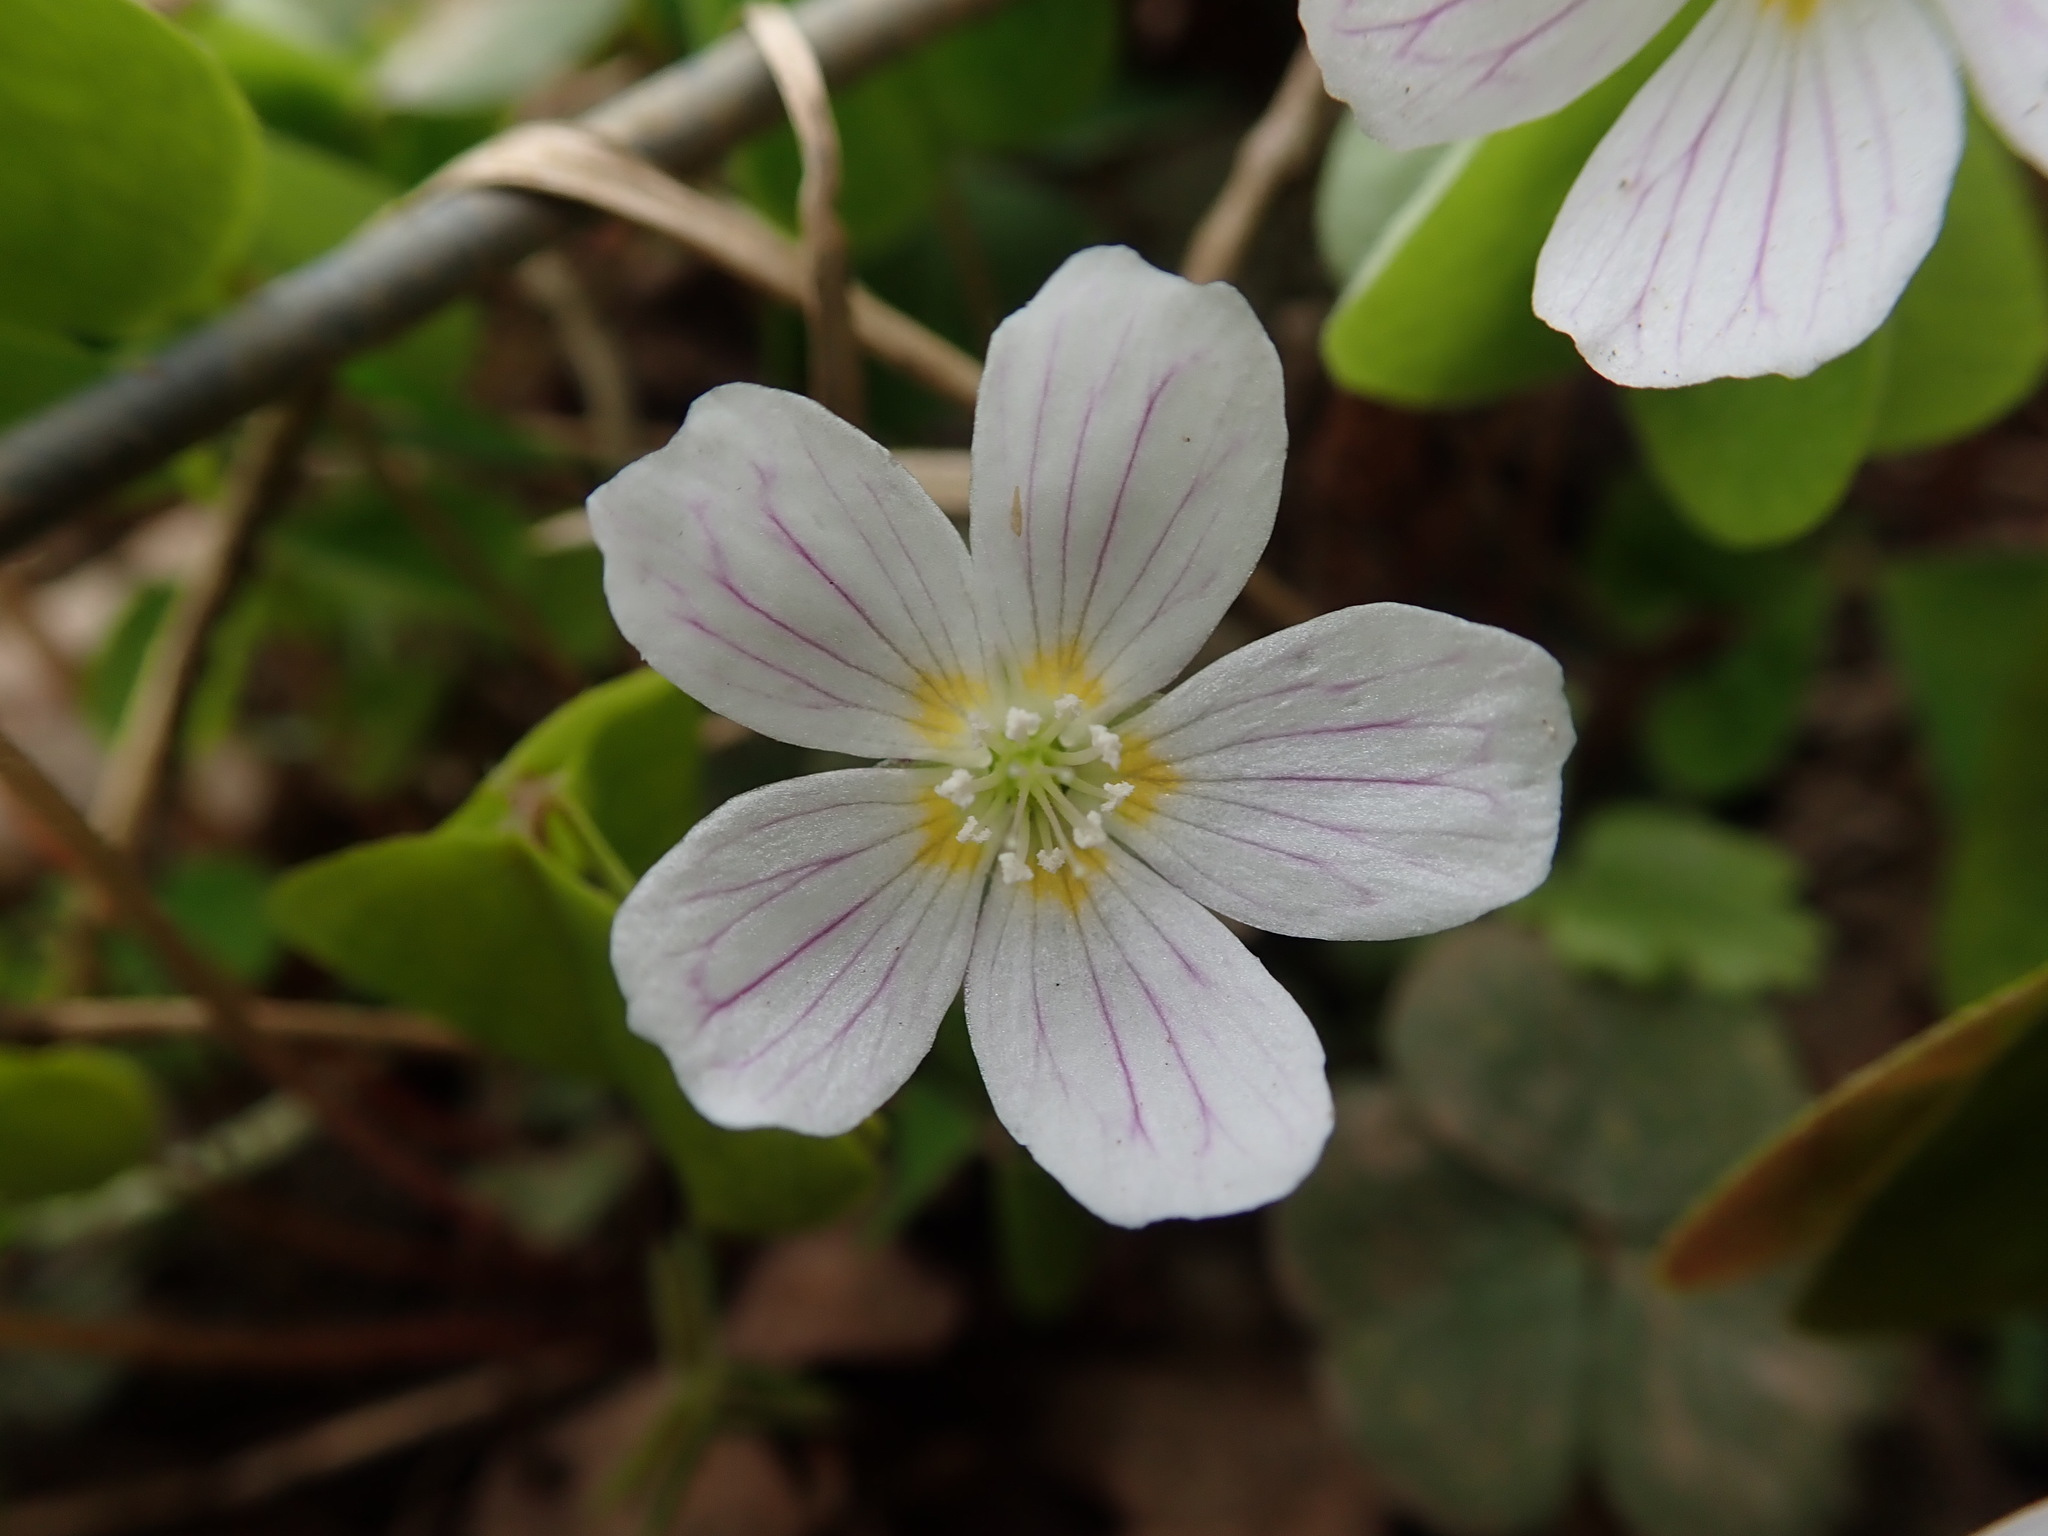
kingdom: Plantae
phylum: Tracheophyta
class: Magnoliopsida
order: Oxalidales
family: Oxalidaceae
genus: Oxalis
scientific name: Oxalis acetosella
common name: Wood-sorrel
